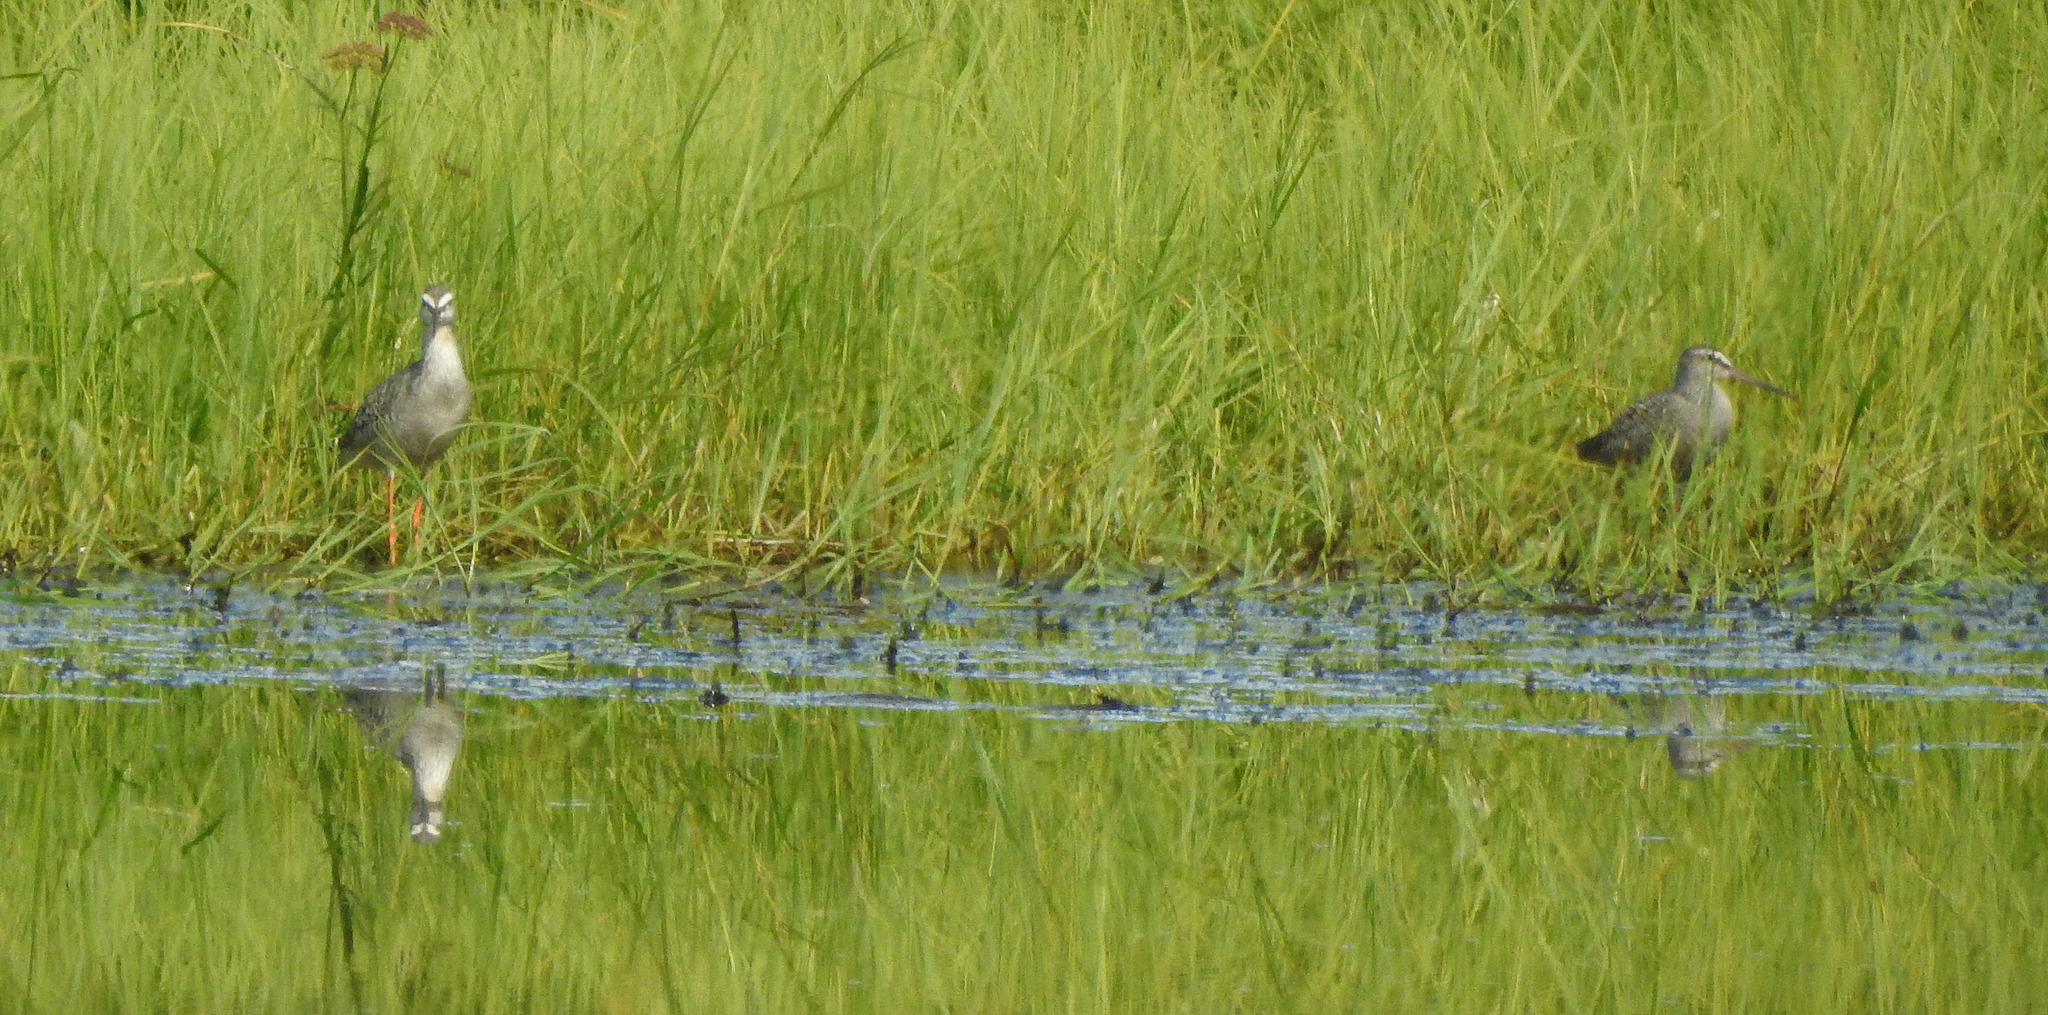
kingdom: Animalia
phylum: Chordata
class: Aves
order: Charadriiformes
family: Scolopacidae
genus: Tringa
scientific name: Tringa erythropus
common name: Spotted redshank
